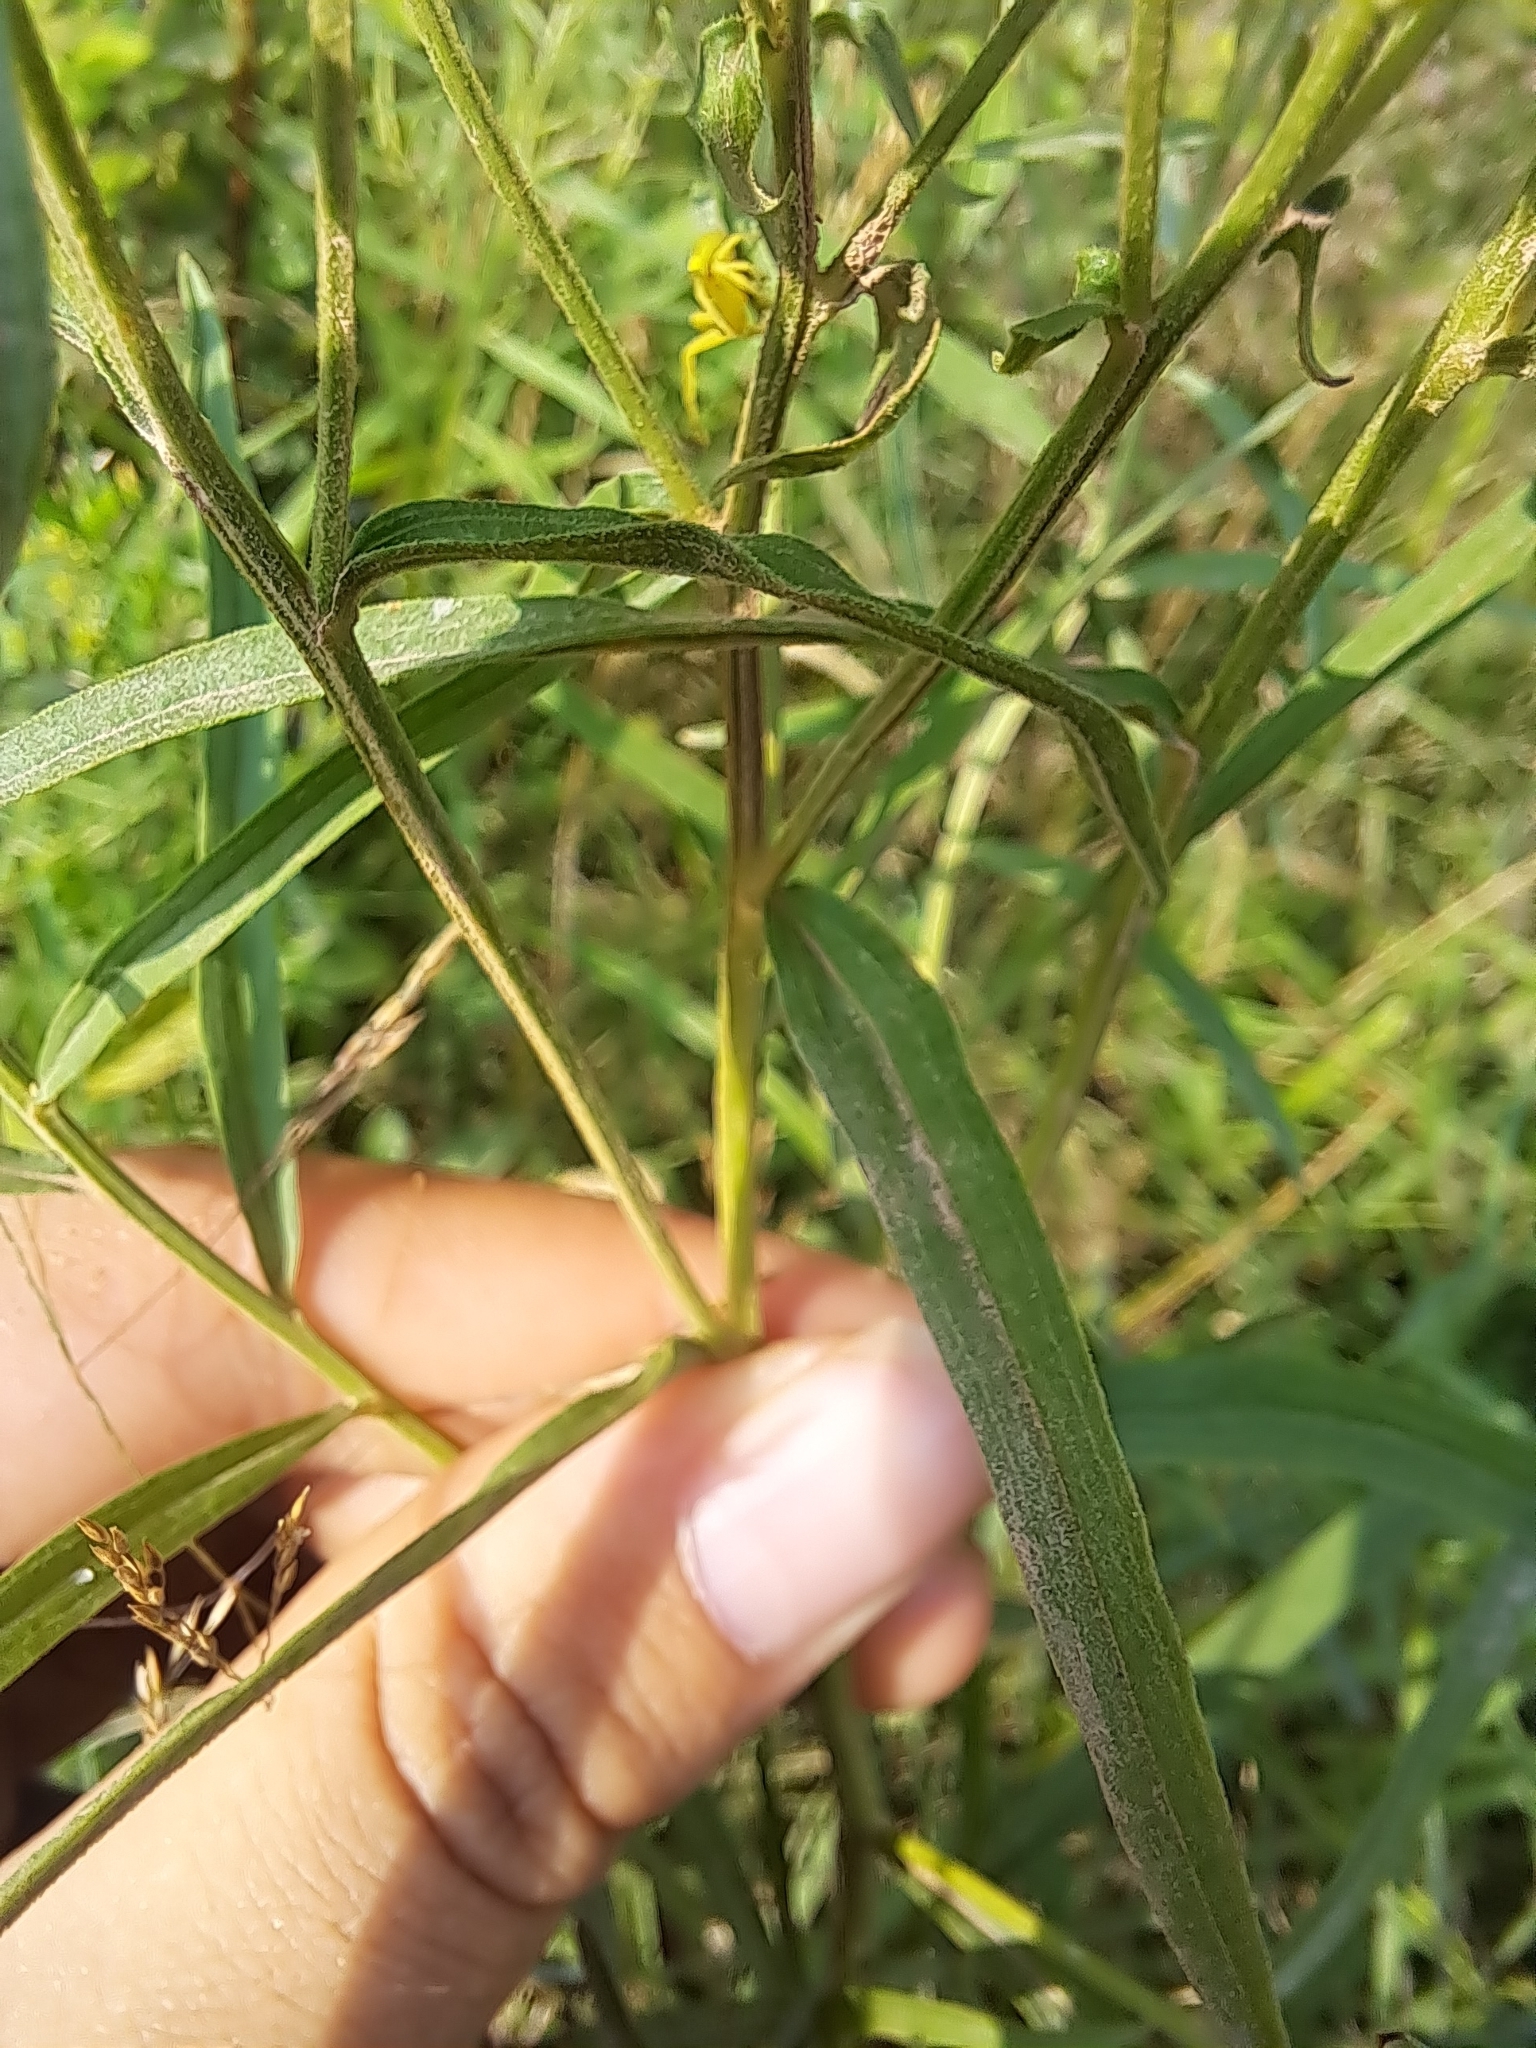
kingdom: Plantae
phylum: Tracheophyta
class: Magnoliopsida
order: Asterales
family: Asteraceae
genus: Euthamia
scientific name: Euthamia graminifolia
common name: Common goldentop
